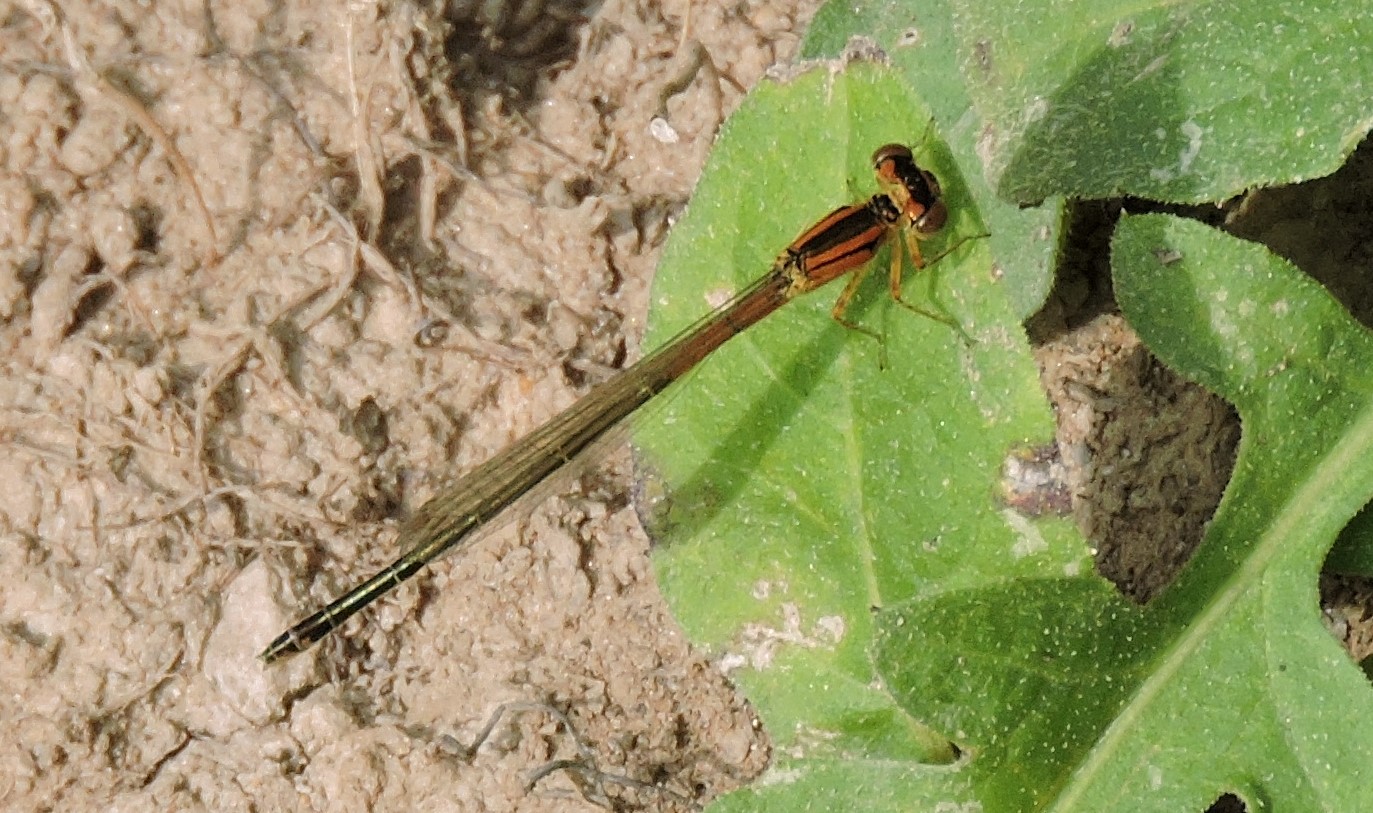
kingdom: Animalia
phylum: Arthropoda
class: Insecta
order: Odonata
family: Coenagrionidae
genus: Ischnura
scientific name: Ischnura verticalis
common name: Eastern forktail
